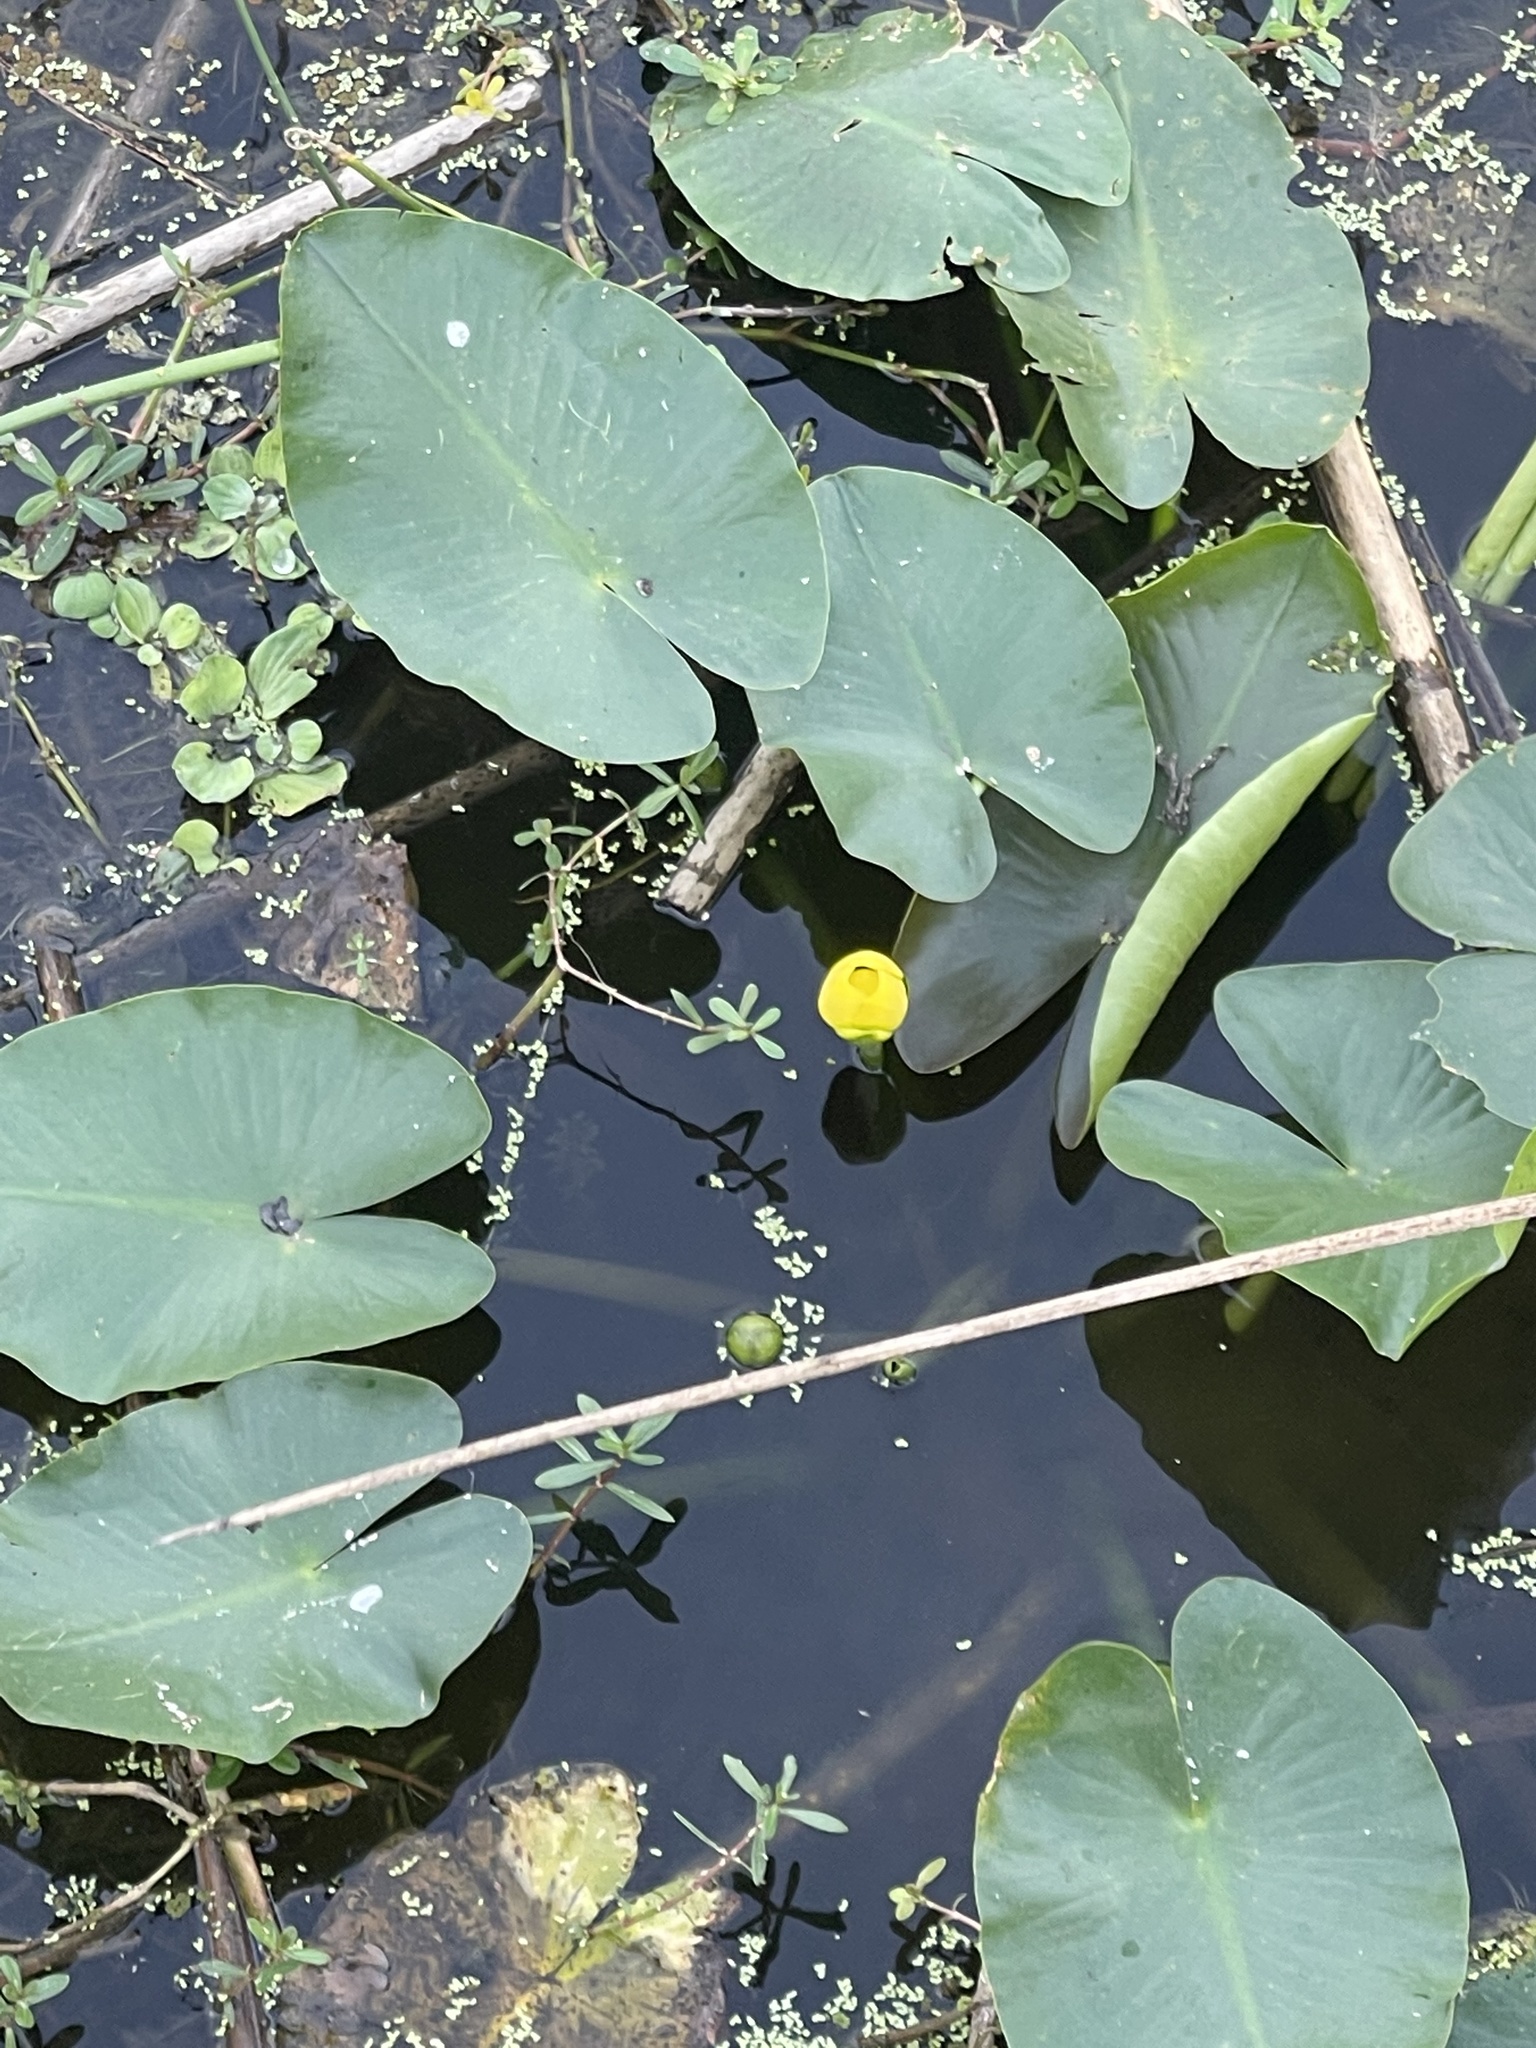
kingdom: Plantae
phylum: Tracheophyta
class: Magnoliopsida
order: Nymphaeales
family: Nymphaeaceae
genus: Nuphar
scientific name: Nuphar advena
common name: Spatter-dock
